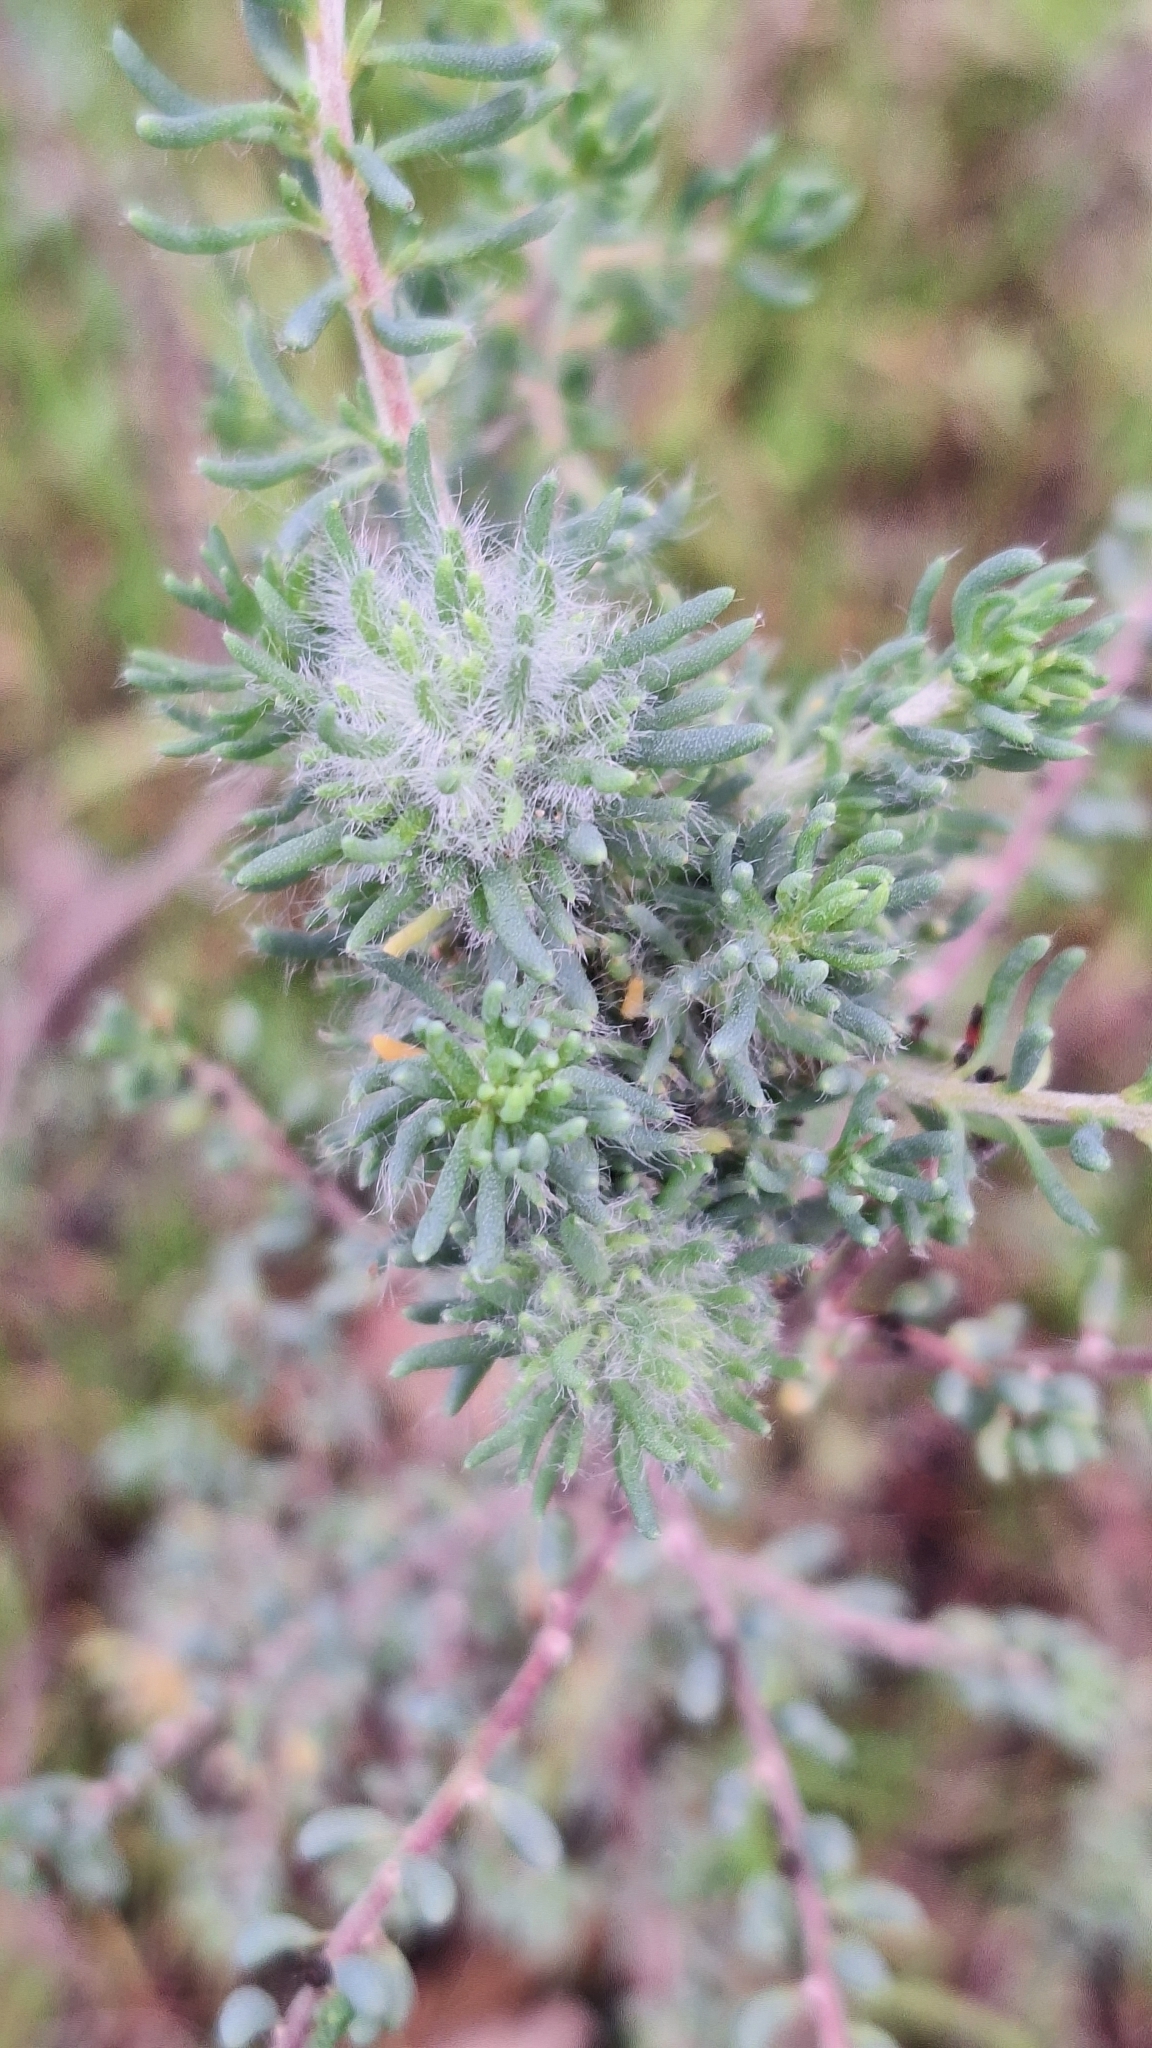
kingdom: Animalia
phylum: Arthropoda
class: Insecta
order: Diptera
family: Cecidomyiidae
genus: Dactylasioptera
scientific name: Dactylasioptera milnae
